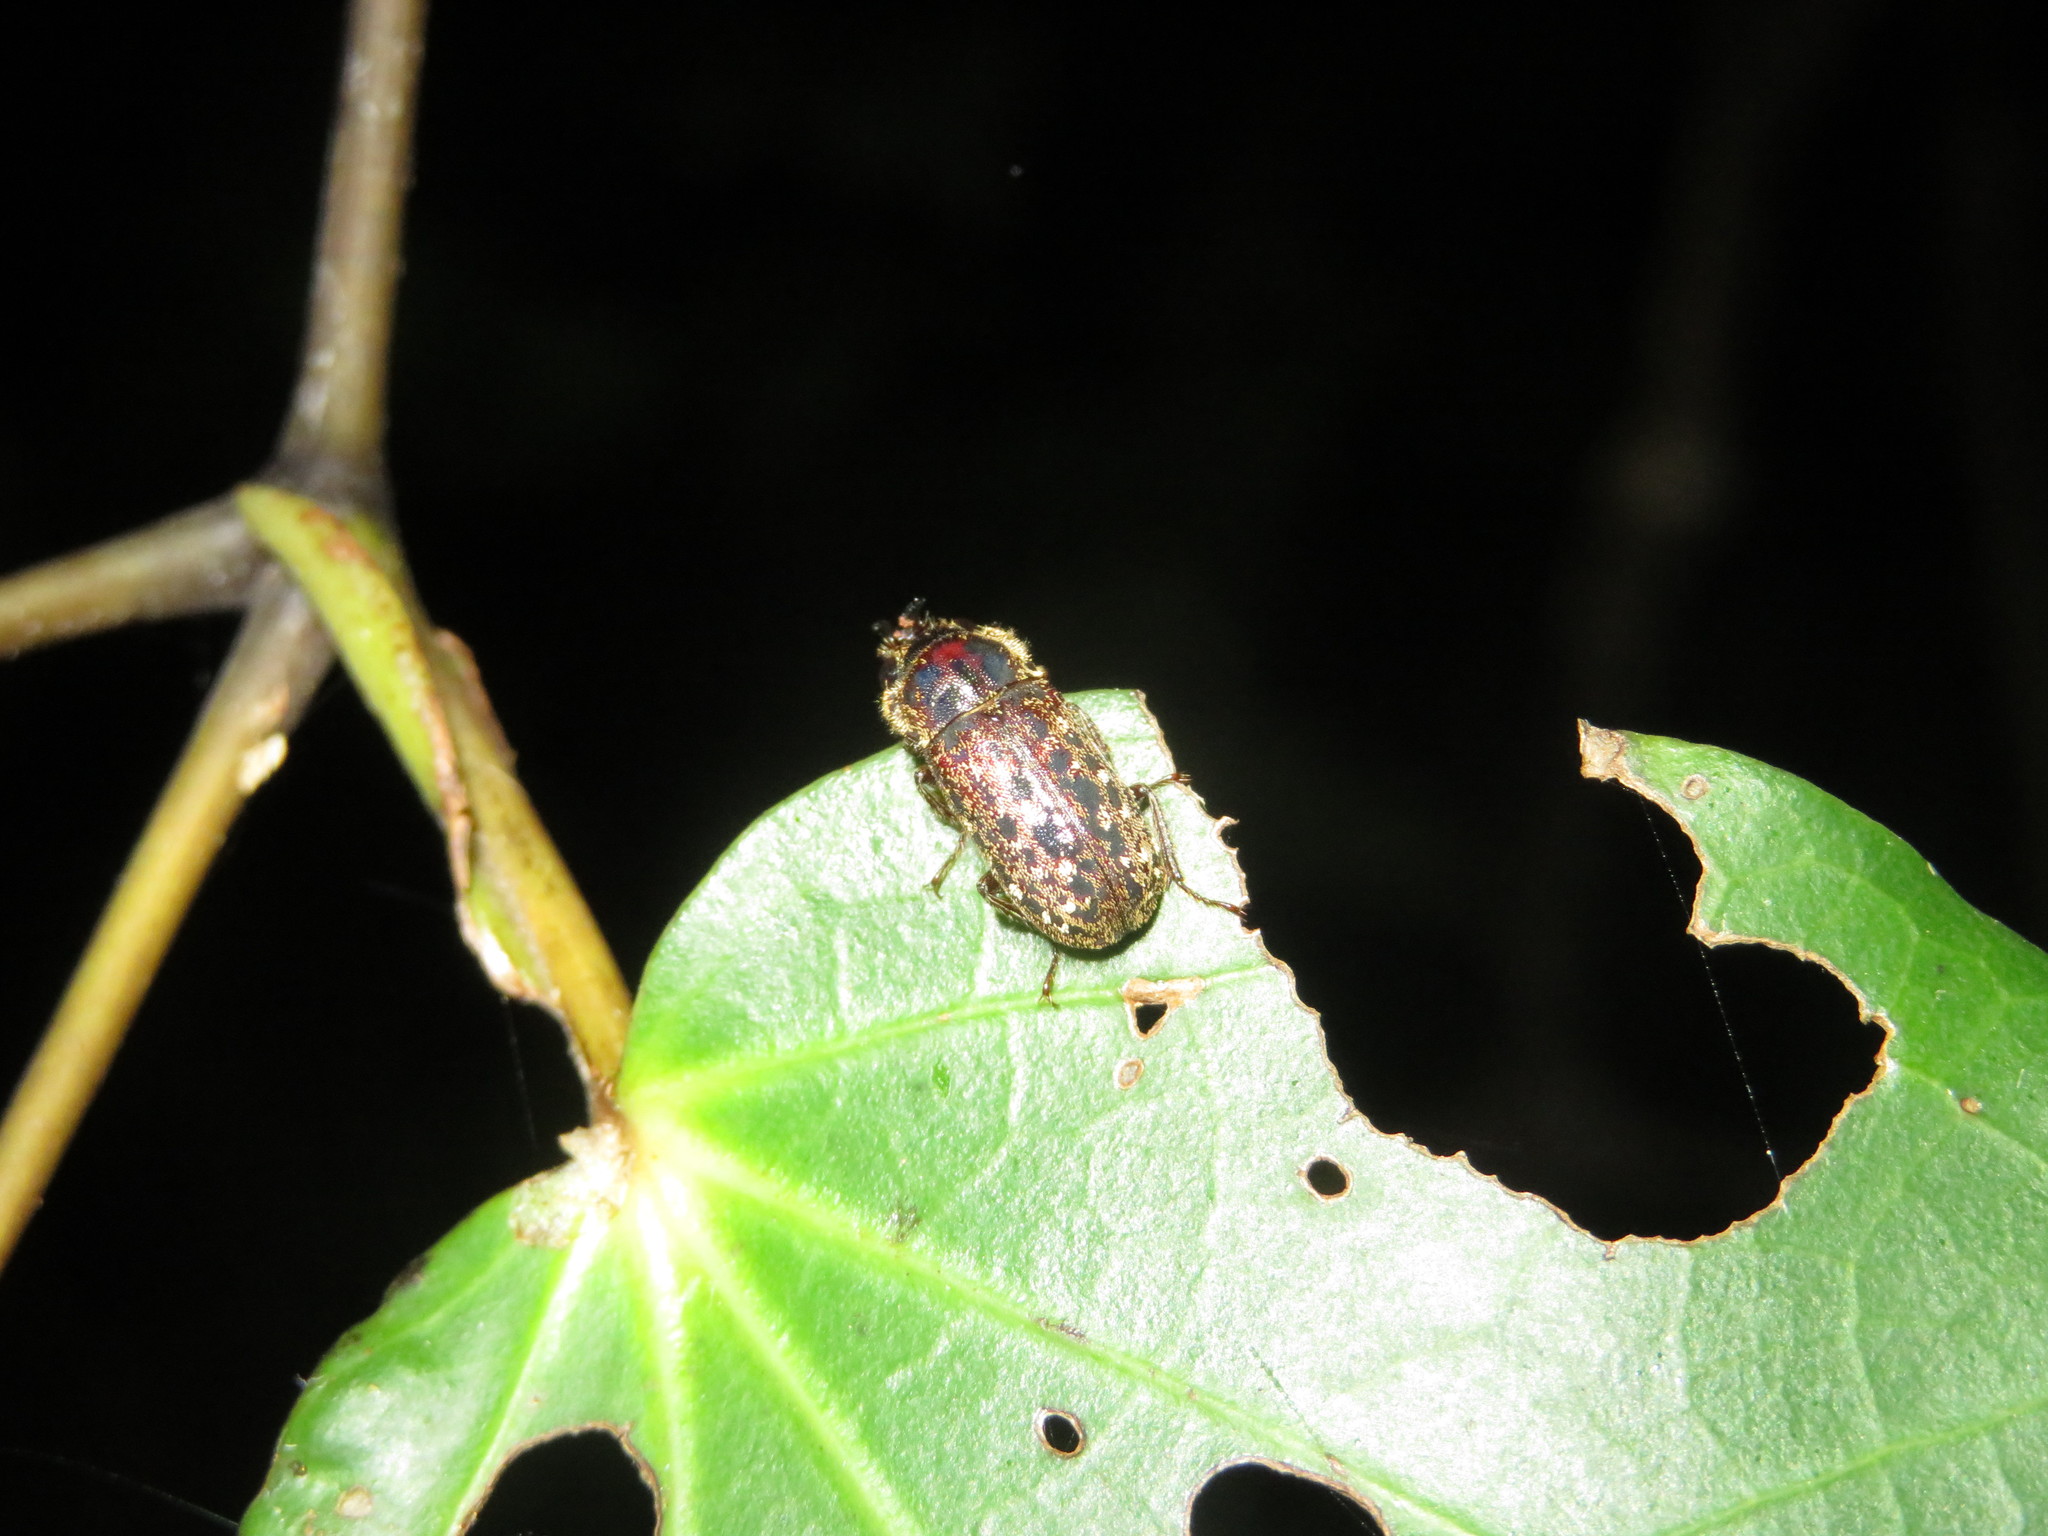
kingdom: Animalia
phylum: Arthropoda
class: Insecta
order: Coleoptera
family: Lucanidae
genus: Mitophyllus
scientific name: Mitophyllus irroratus
